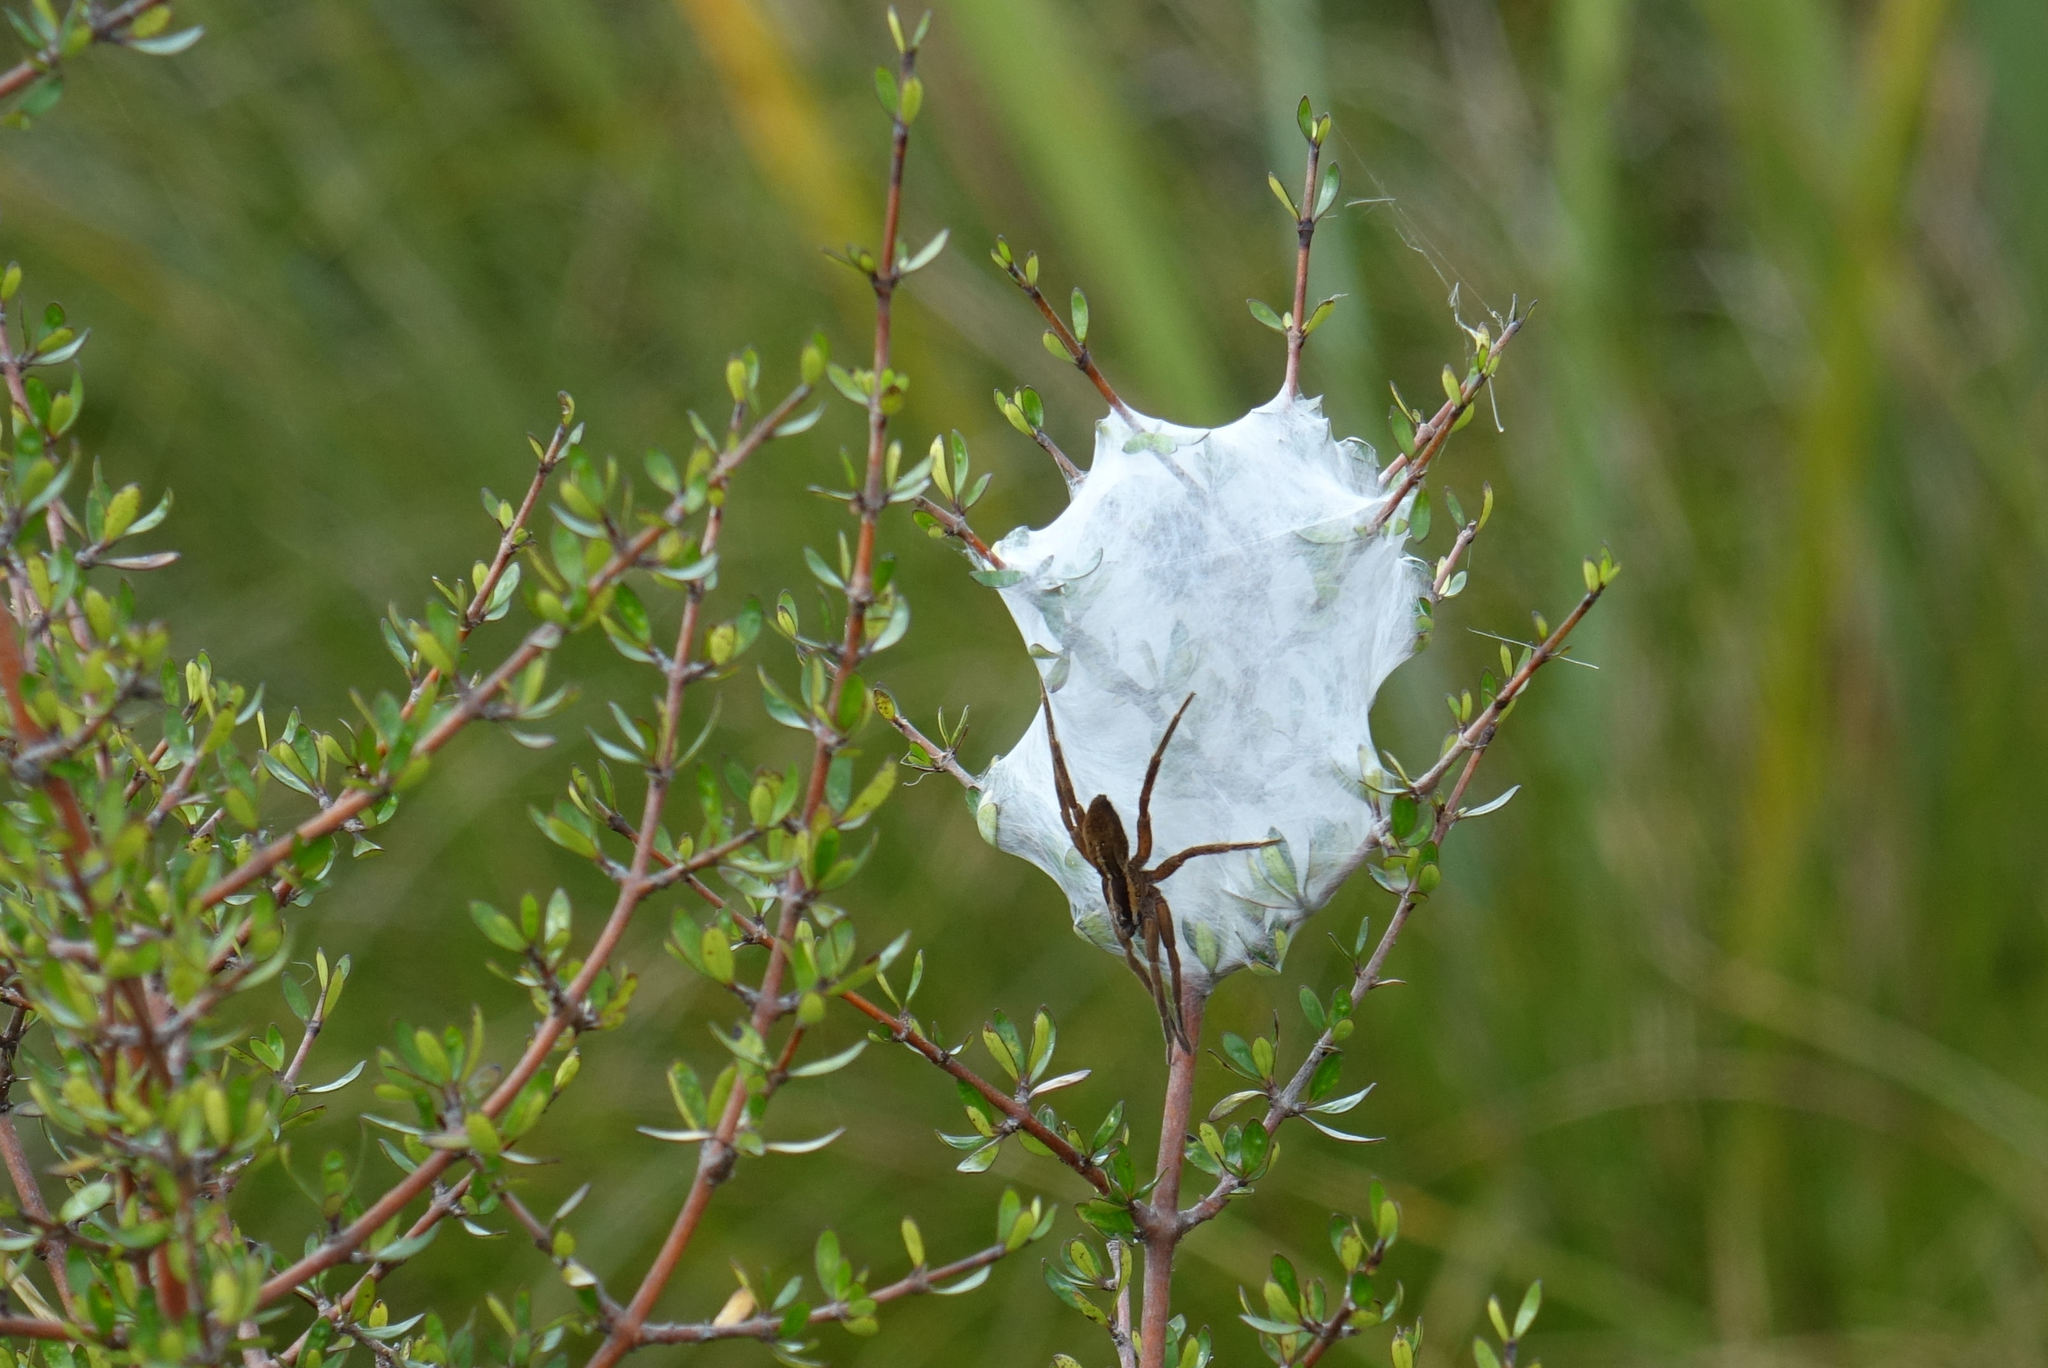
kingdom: Animalia
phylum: Arthropoda
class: Arachnida
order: Araneae
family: Pisauridae
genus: Dolomedes
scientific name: Dolomedes minor
